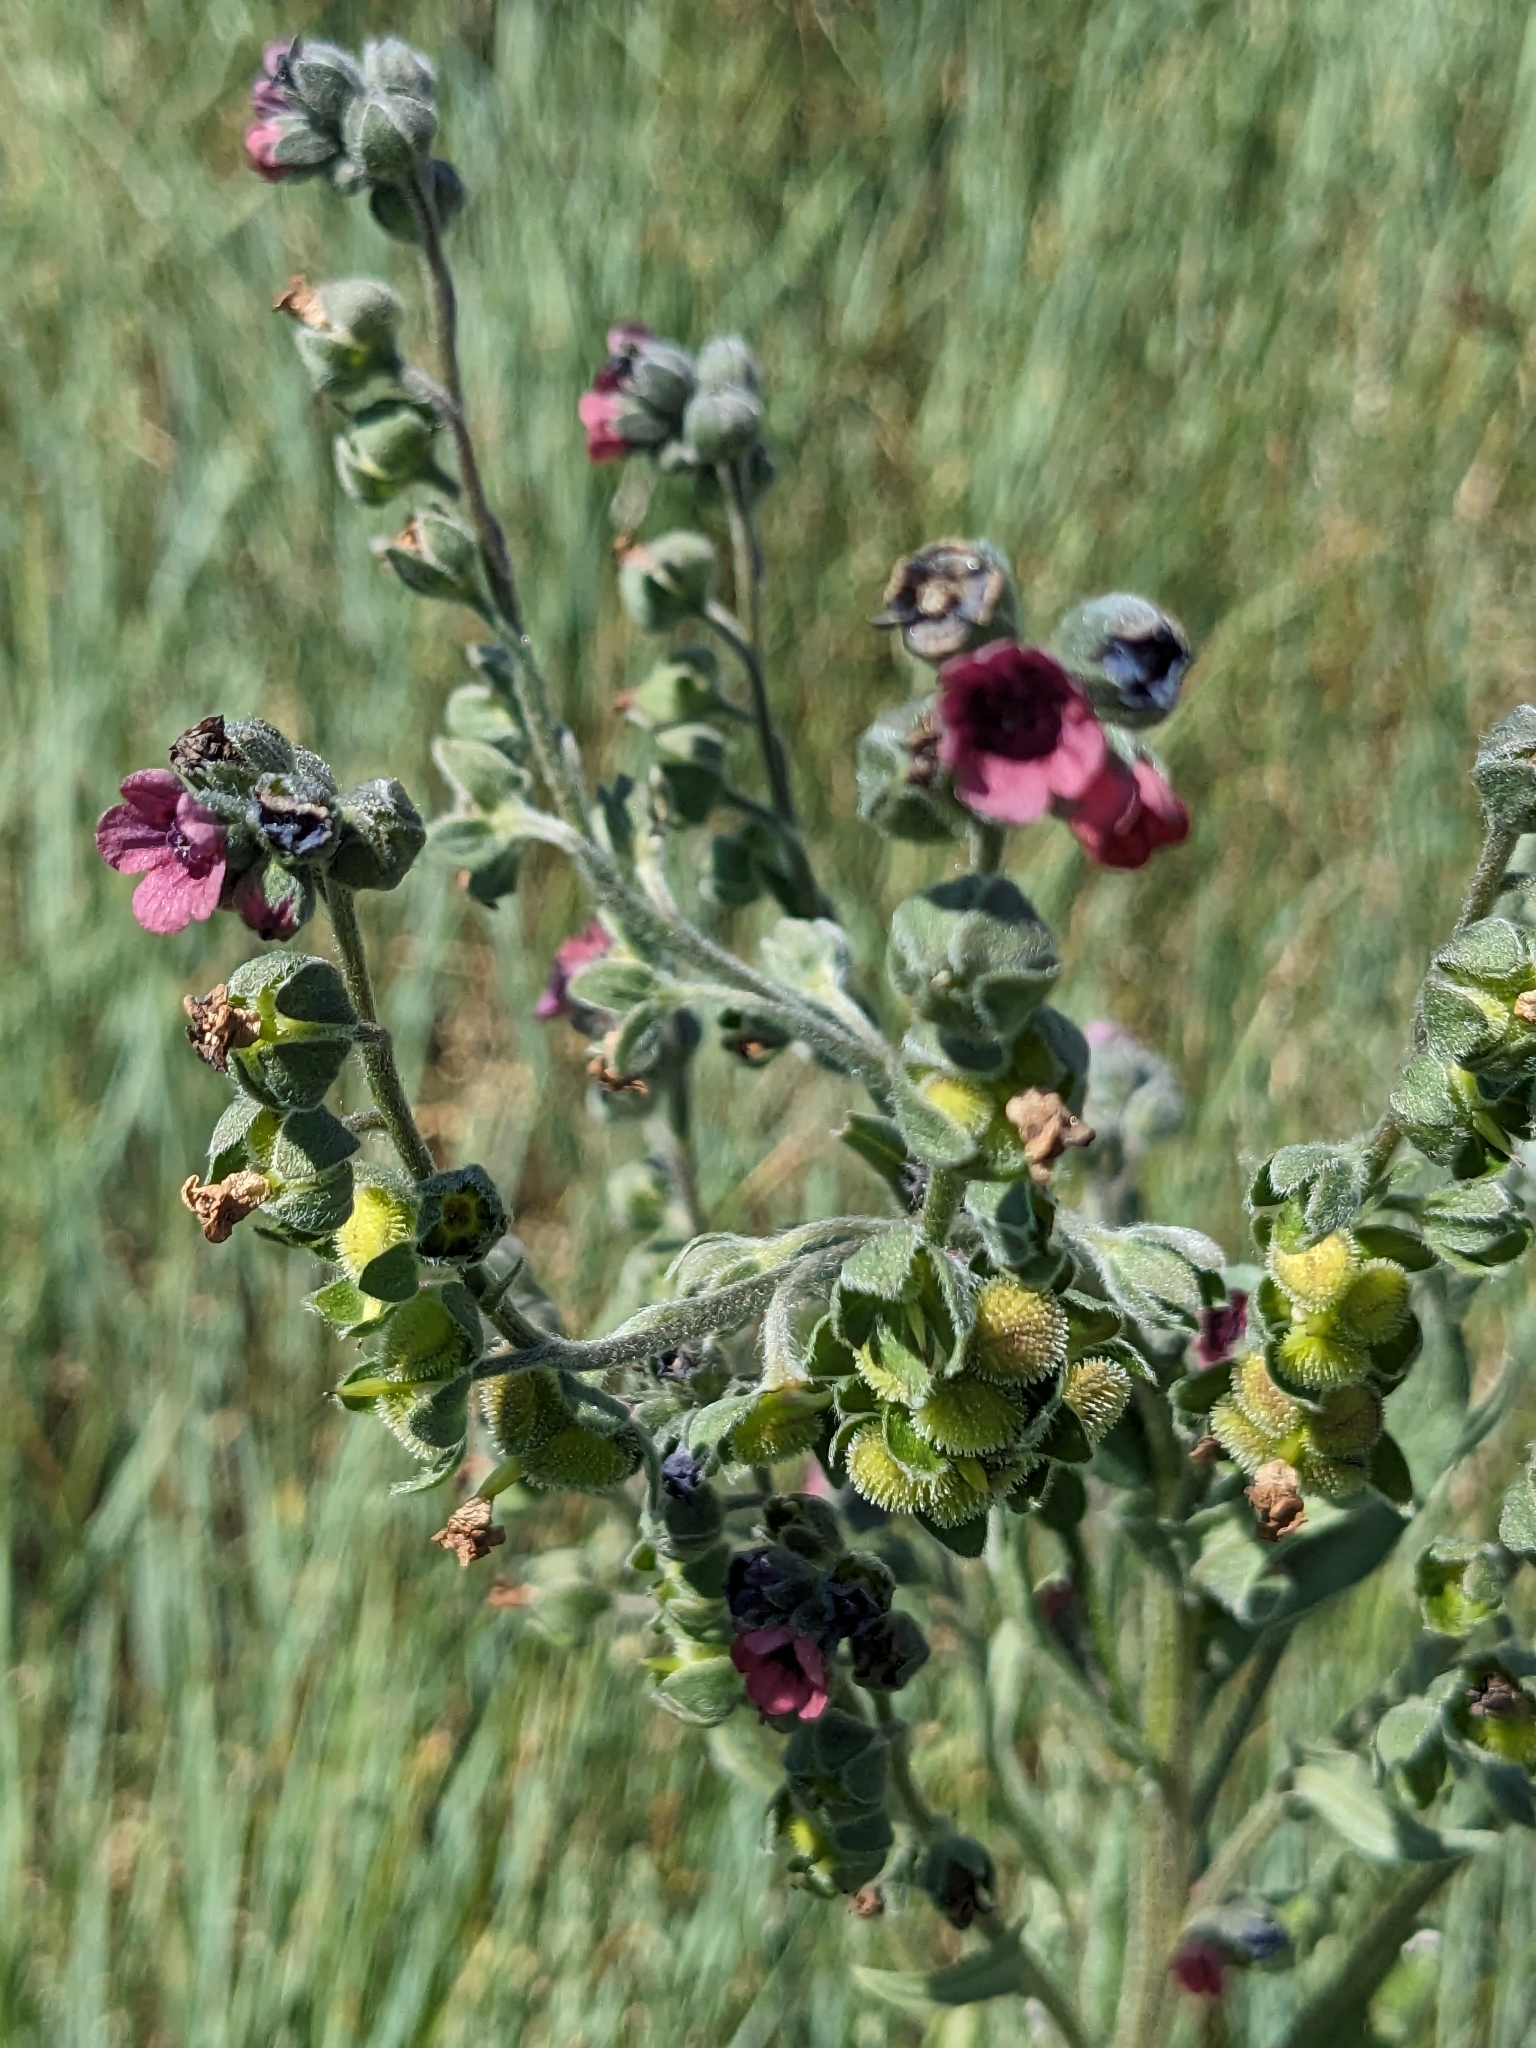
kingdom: Plantae
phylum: Tracheophyta
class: Magnoliopsida
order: Boraginales
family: Boraginaceae
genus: Cynoglossum
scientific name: Cynoglossum officinale
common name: Hound's-tongue
